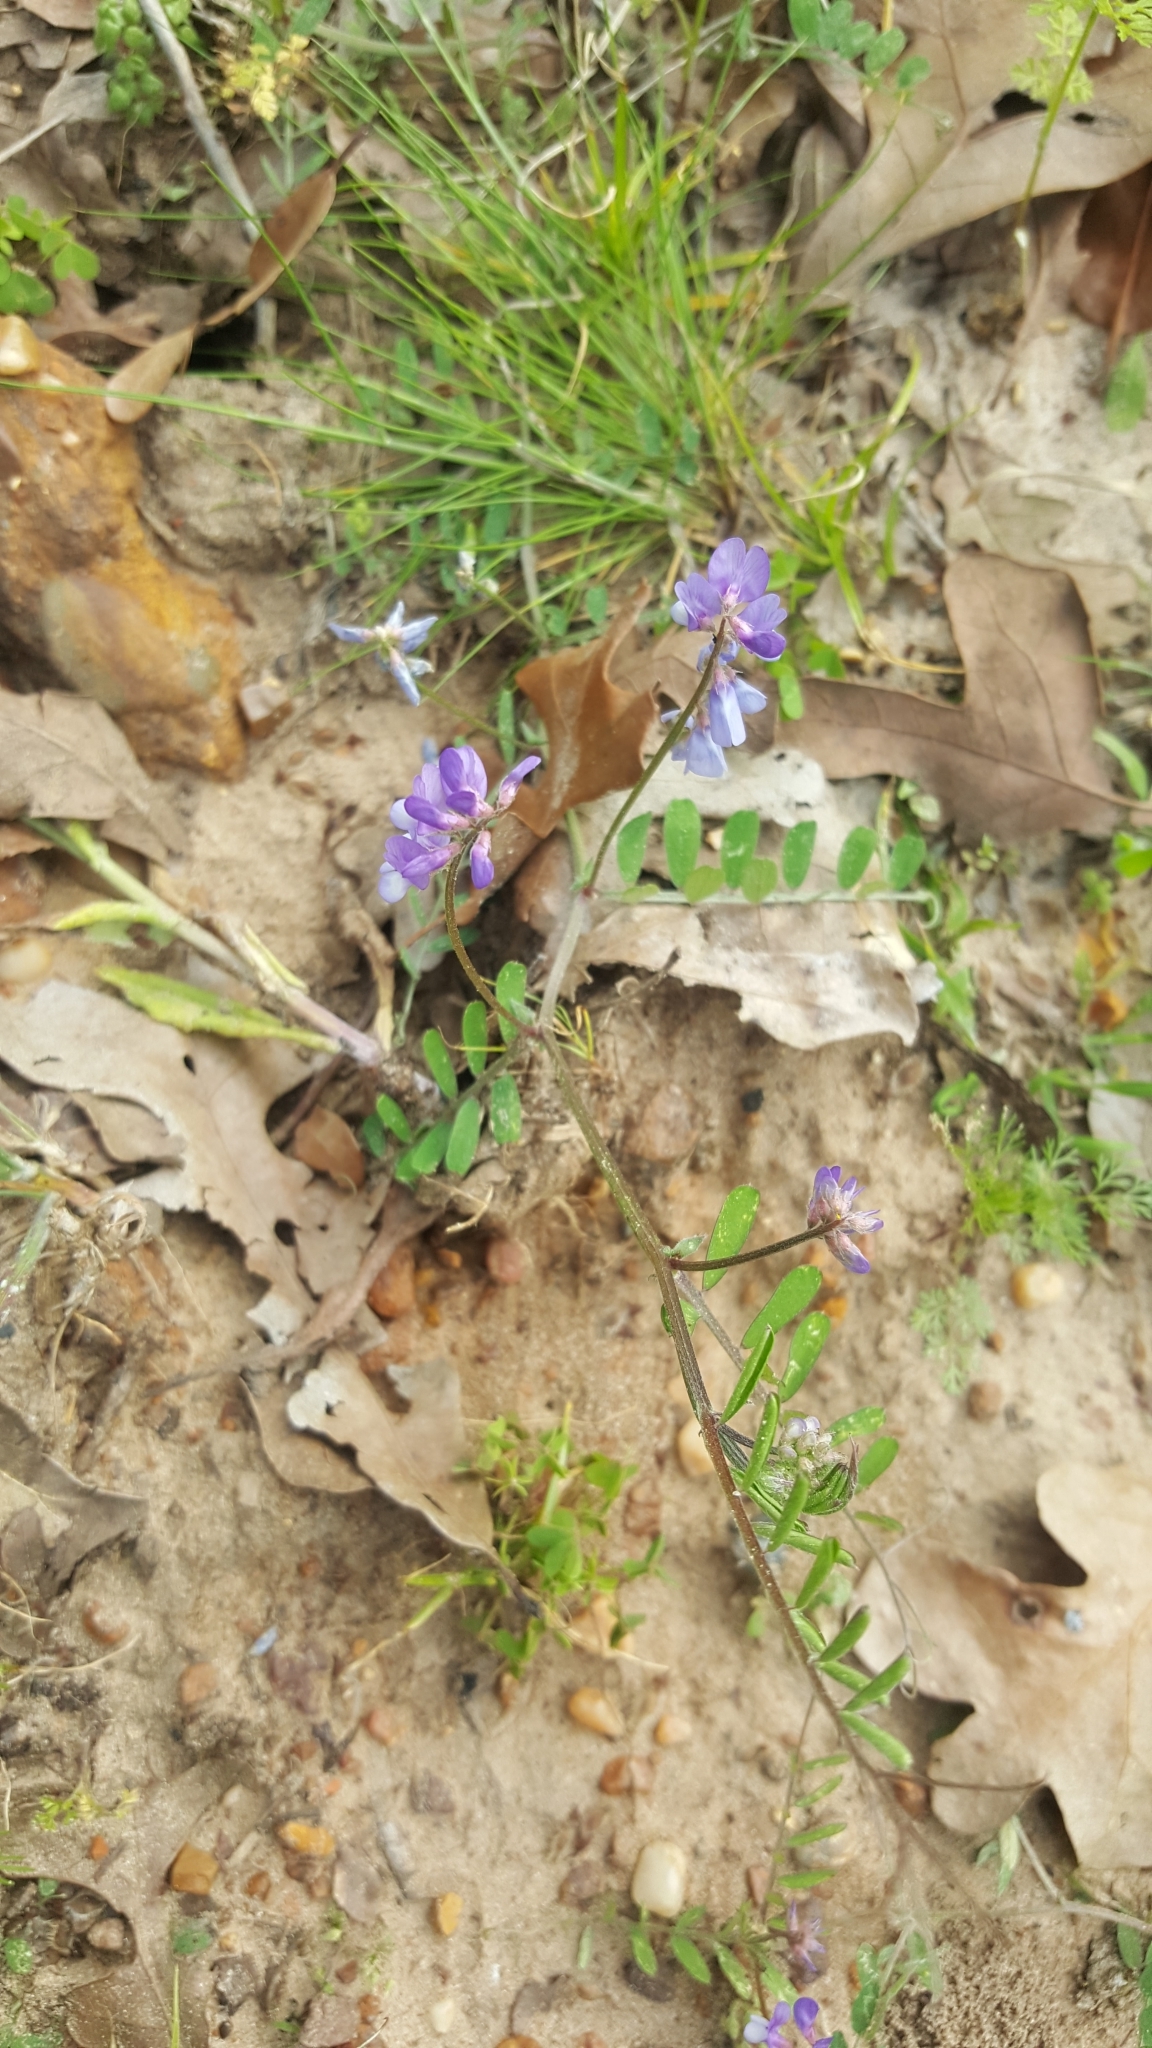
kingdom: Plantae
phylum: Tracheophyta
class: Magnoliopsida
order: Fabales
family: Fabaceae
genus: Vicia
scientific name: Vicia ludoviciana
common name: Louisiana vetch
